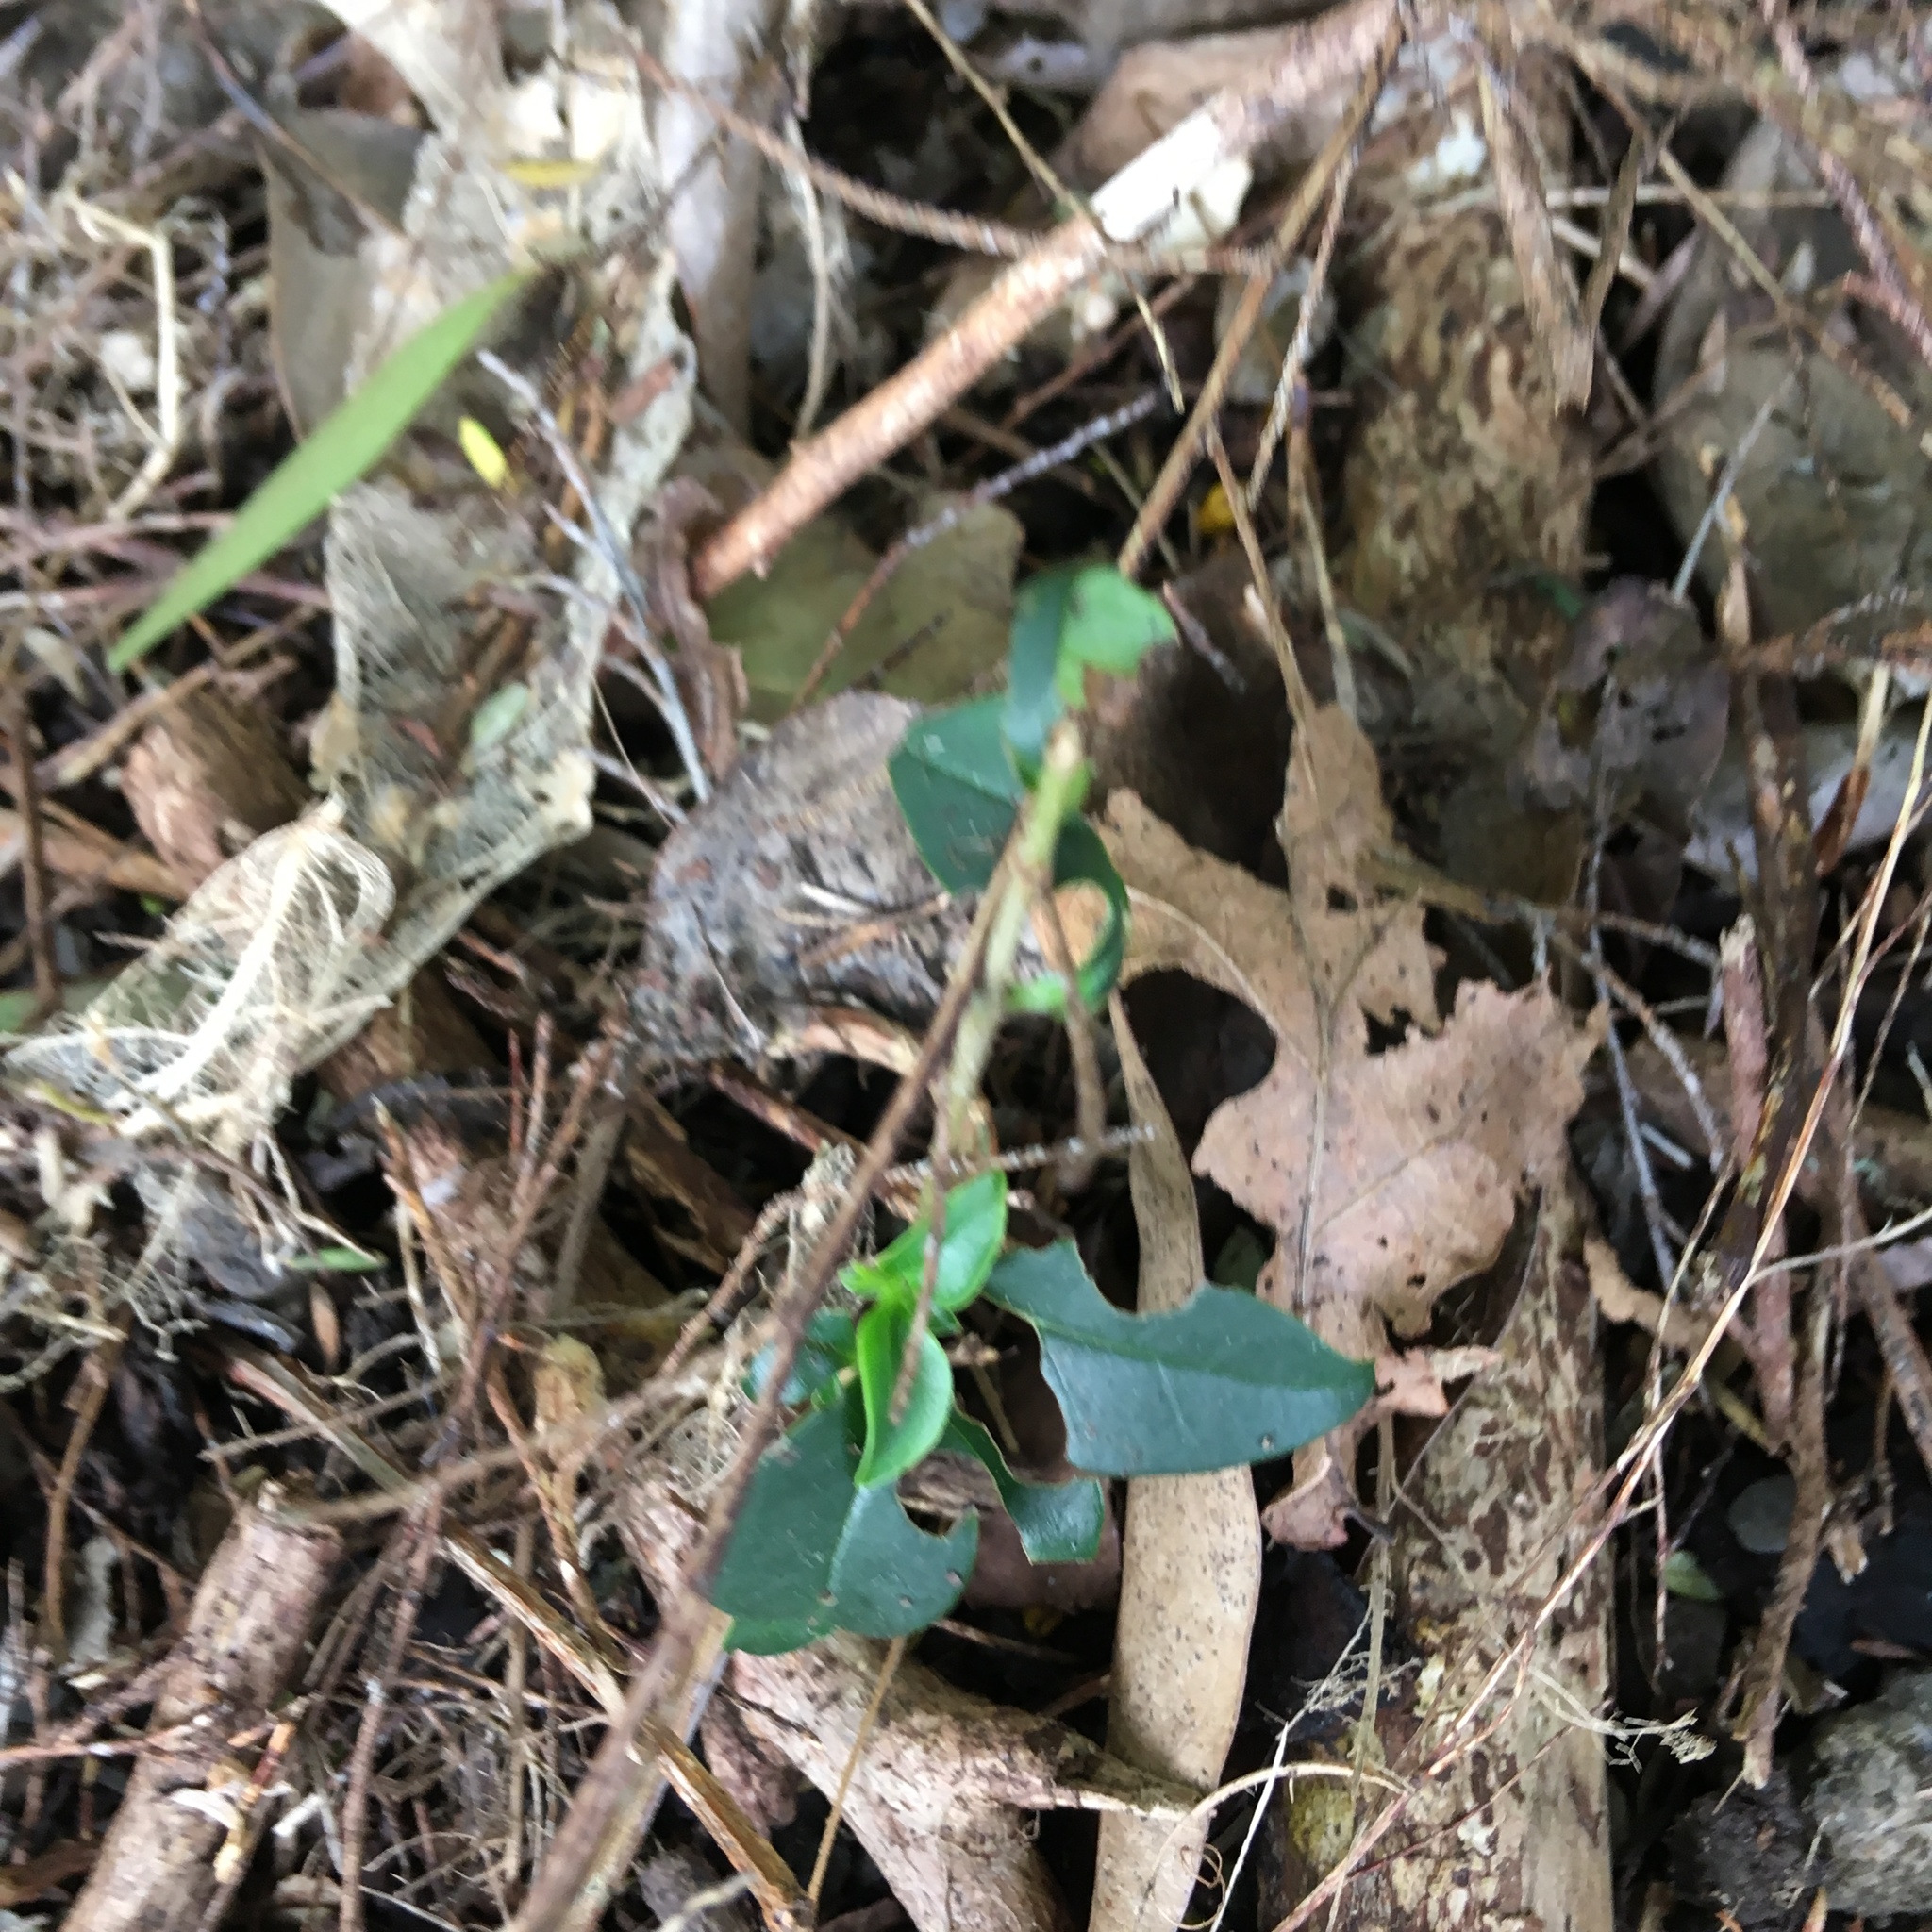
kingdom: Plantae
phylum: Tracheophyta
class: Magnoliopsida
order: Lamiales
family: Oleaceae
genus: Ligustrum
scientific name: Ligustrum lucidum
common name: Glossy privet
